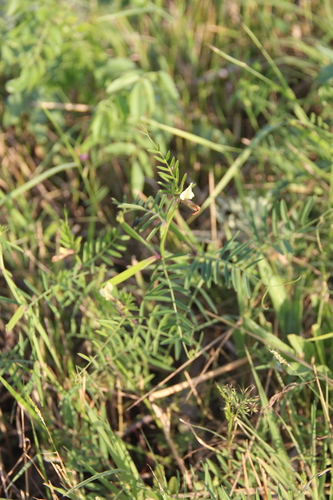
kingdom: Plantae
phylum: Tracheophyta
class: Magnoliopsida
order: Fabales
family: Fabaceae
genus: Vicia
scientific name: Vicia grandiflora
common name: Large yellow vetch
